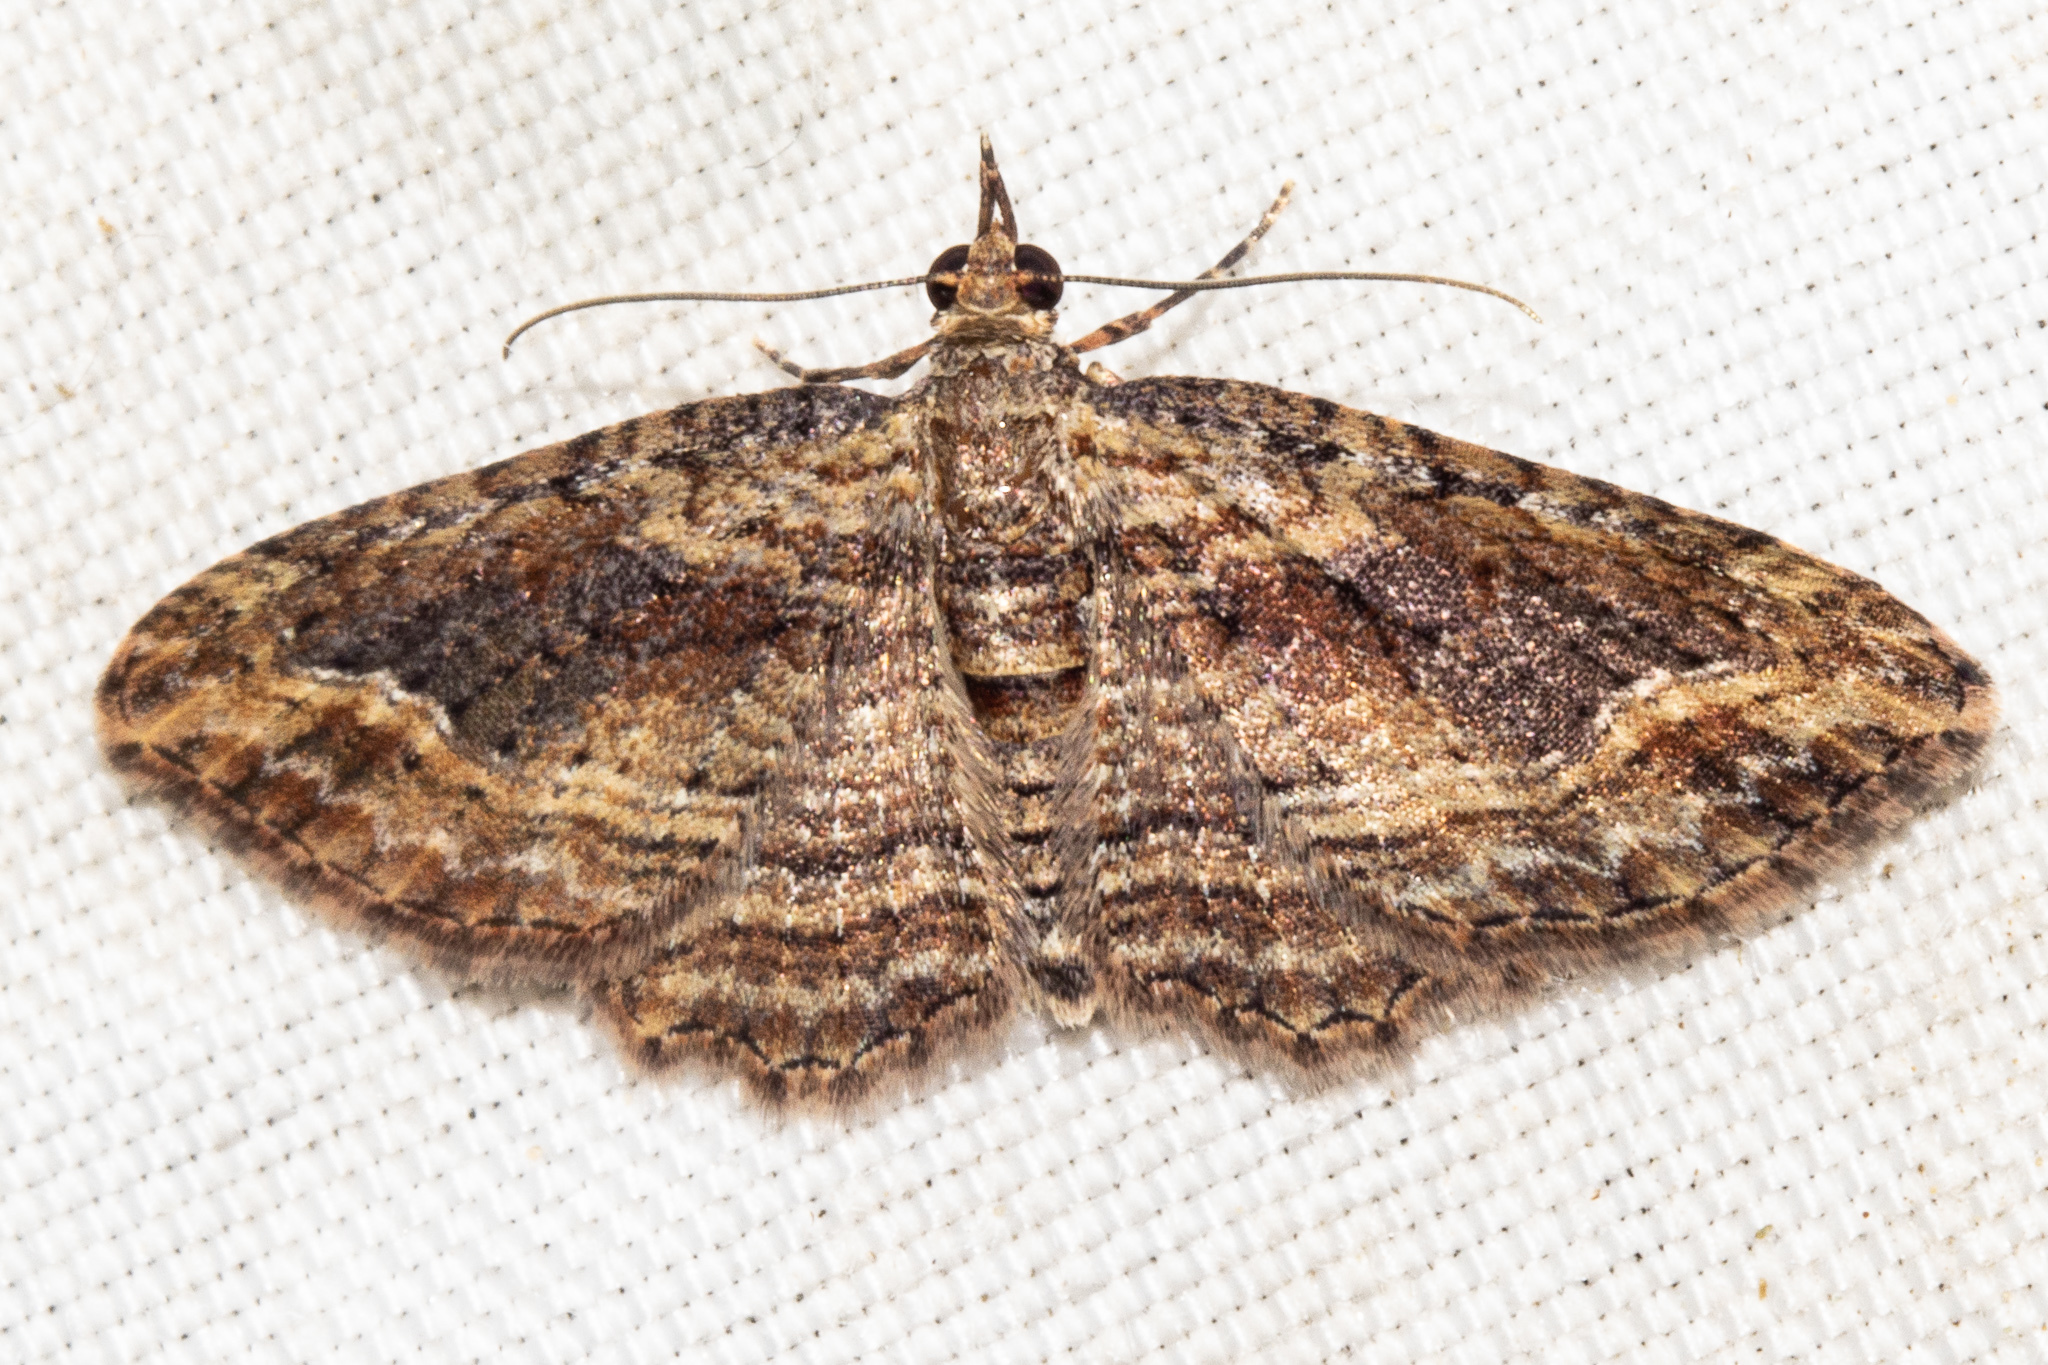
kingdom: Animalia
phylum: Arthropoda
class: Insecta
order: Lepidoptera
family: Geometridae
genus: Chloroclystis
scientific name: Chloroclystis filata
